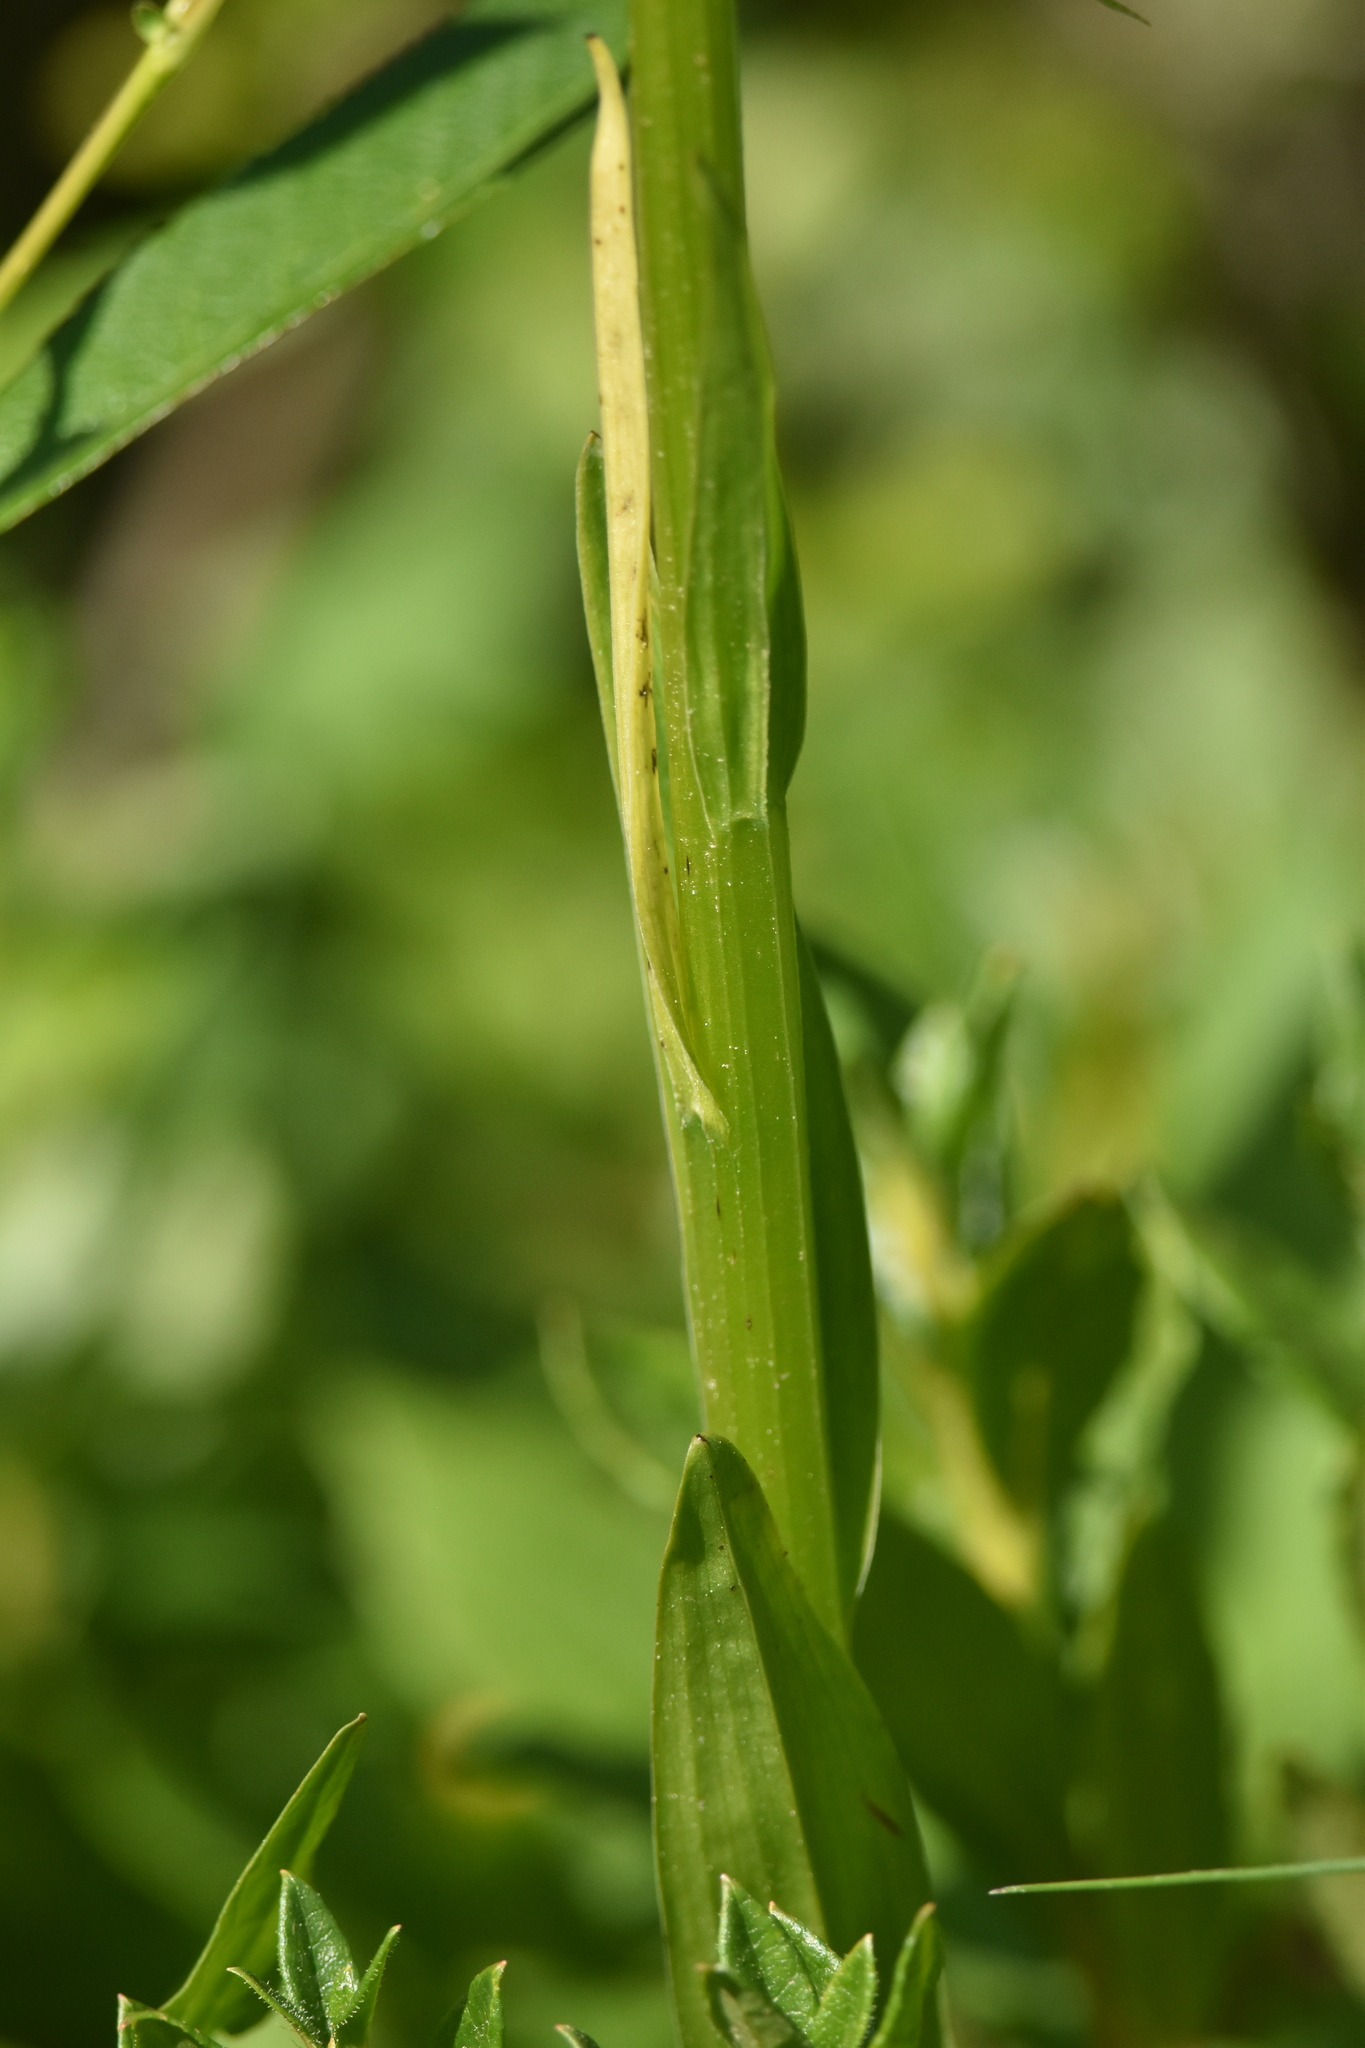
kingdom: Plantae
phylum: Tracheophyta
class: Liliopsida
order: Asparagales
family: Orchidaceae
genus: Platanthera
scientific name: Platanthera stricta
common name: Slender bog orchid
